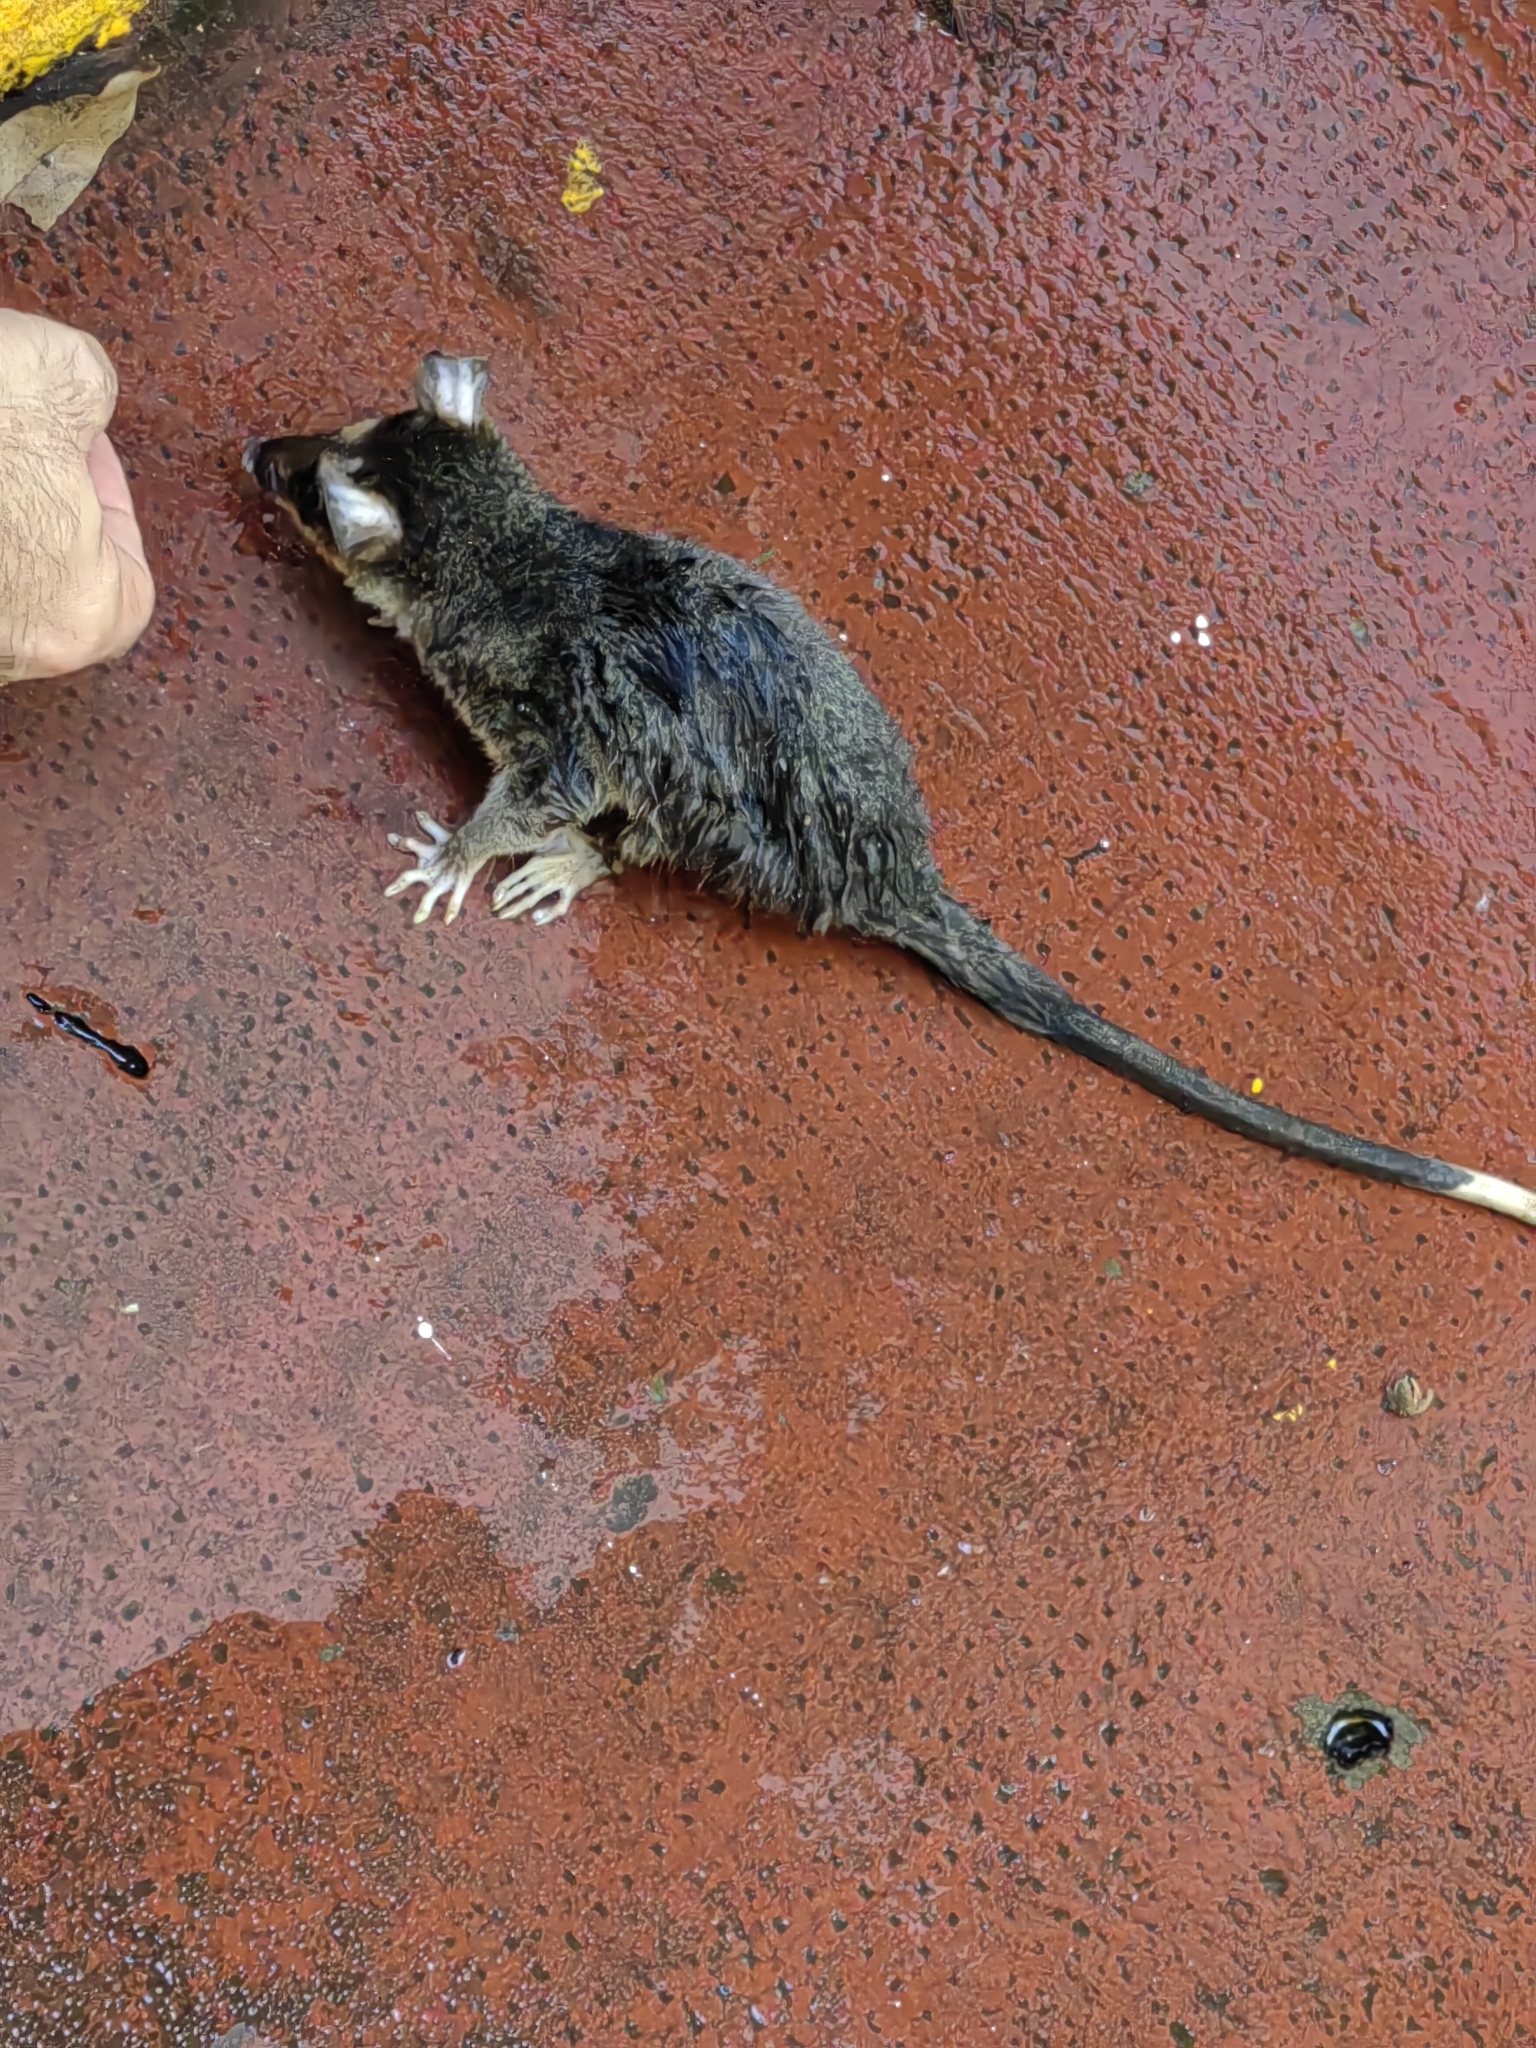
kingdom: Animalia
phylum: Chordata
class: Mammalia
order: Didelphimorphia
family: Didelphidae
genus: Philander
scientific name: Philander
